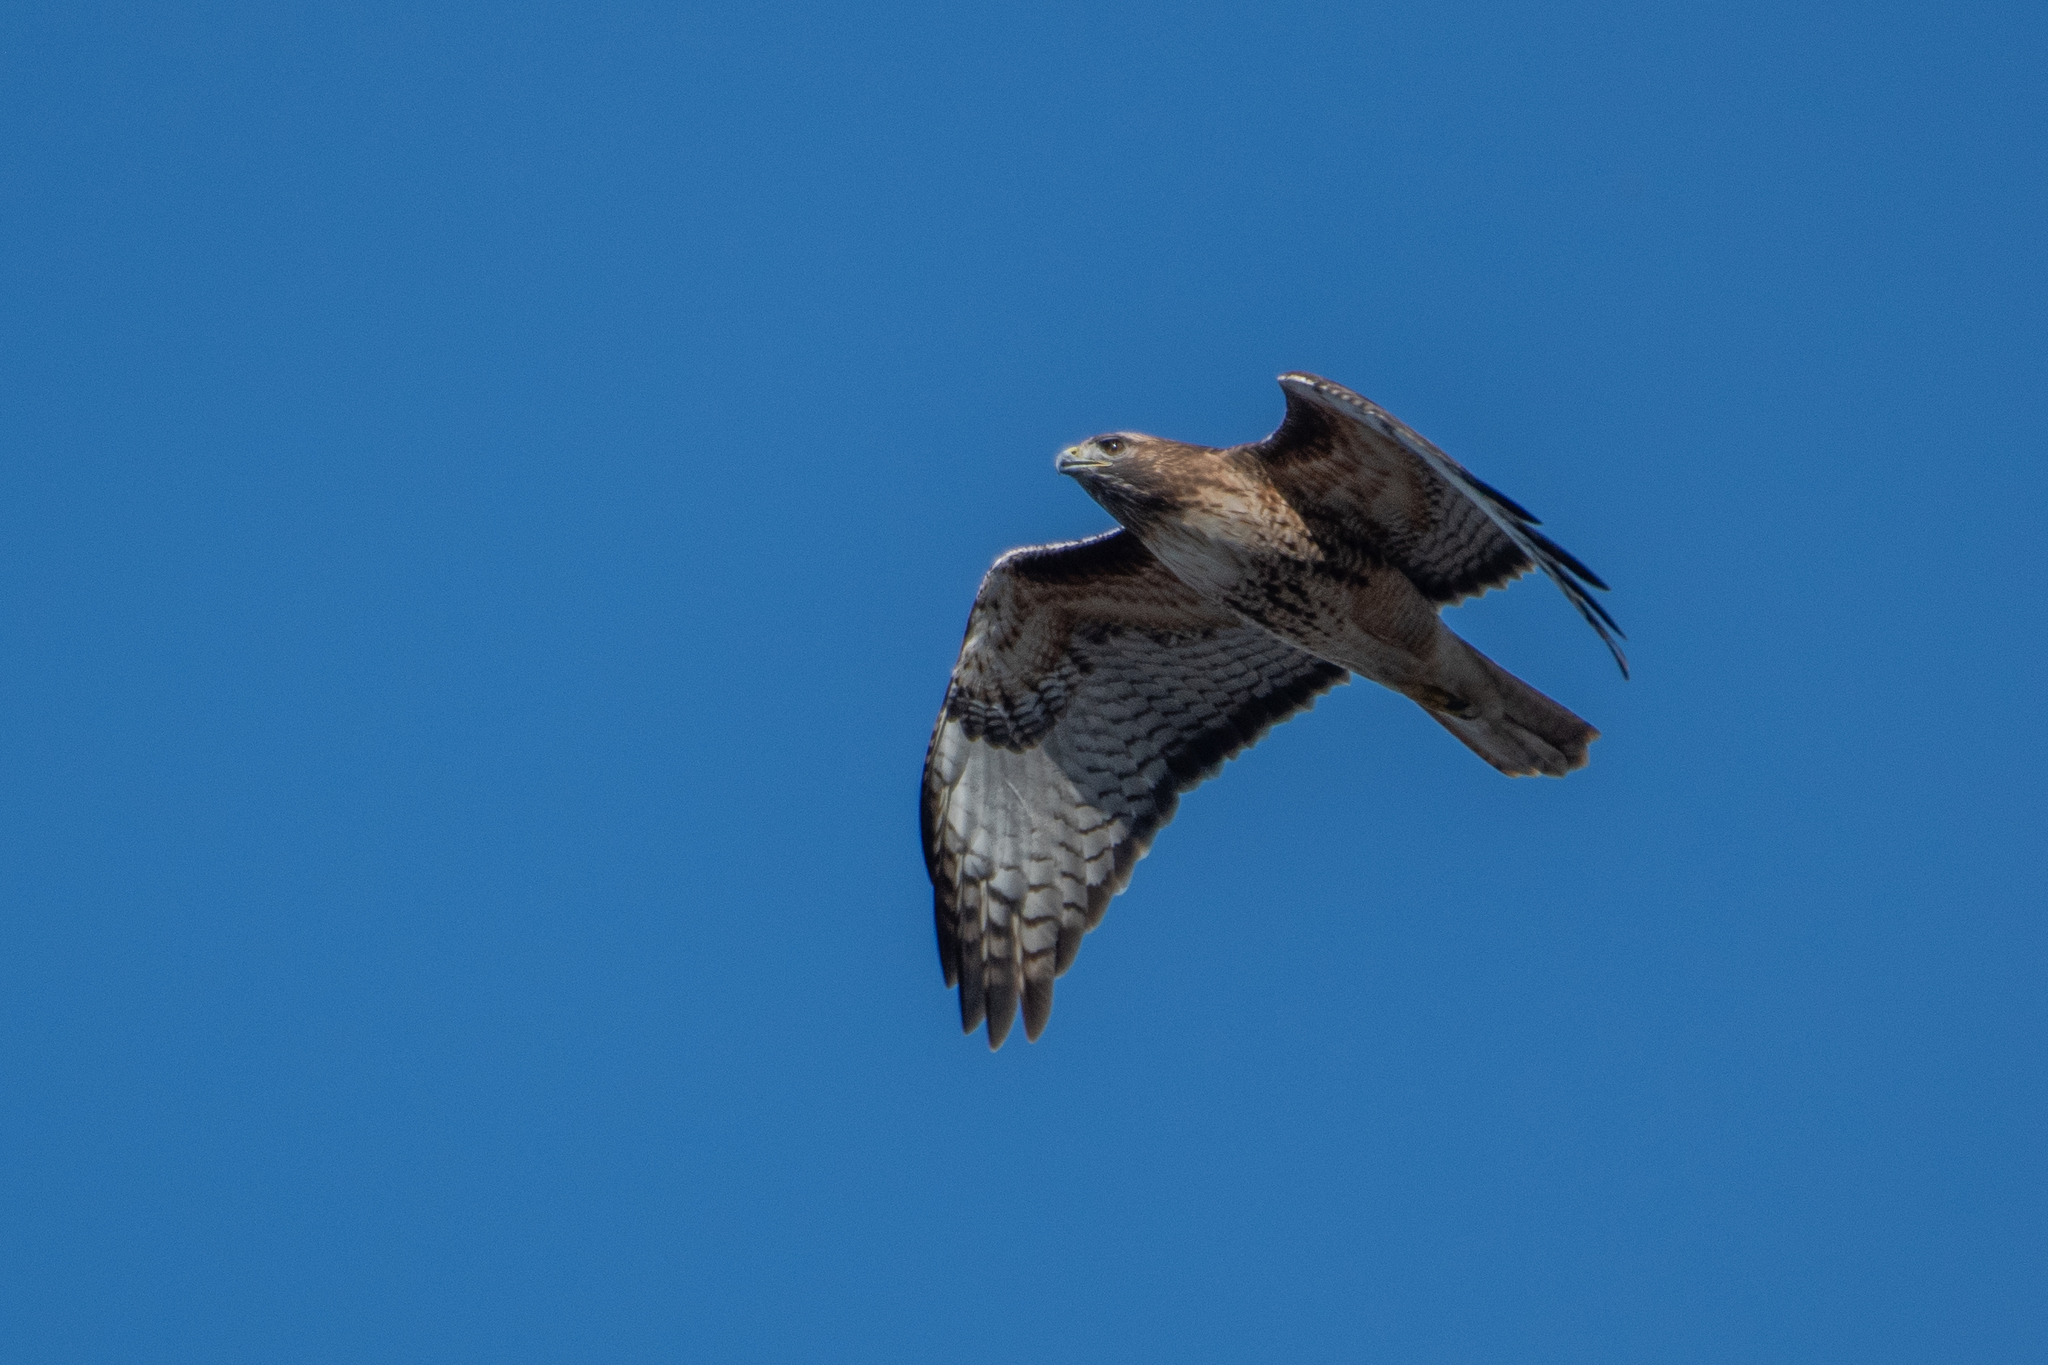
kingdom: Animalia
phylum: Chordata
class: Aves
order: Accipitriformes
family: Accipitridae
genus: Buteo
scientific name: Buteo jamaicensis
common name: Red-tailed hawk
